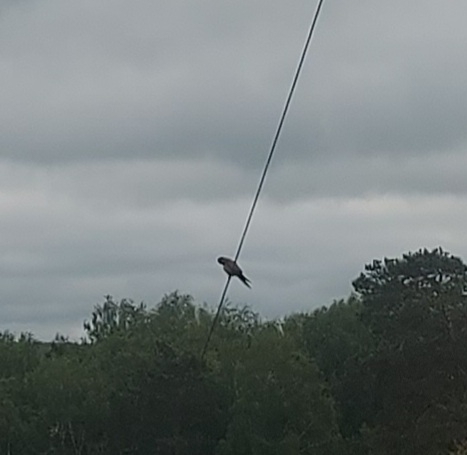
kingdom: Animalia
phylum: Chordata
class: Aves
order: Falconiformes
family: Falconidae
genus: Falco
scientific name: Falco tinnunculus
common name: Common kestrel
